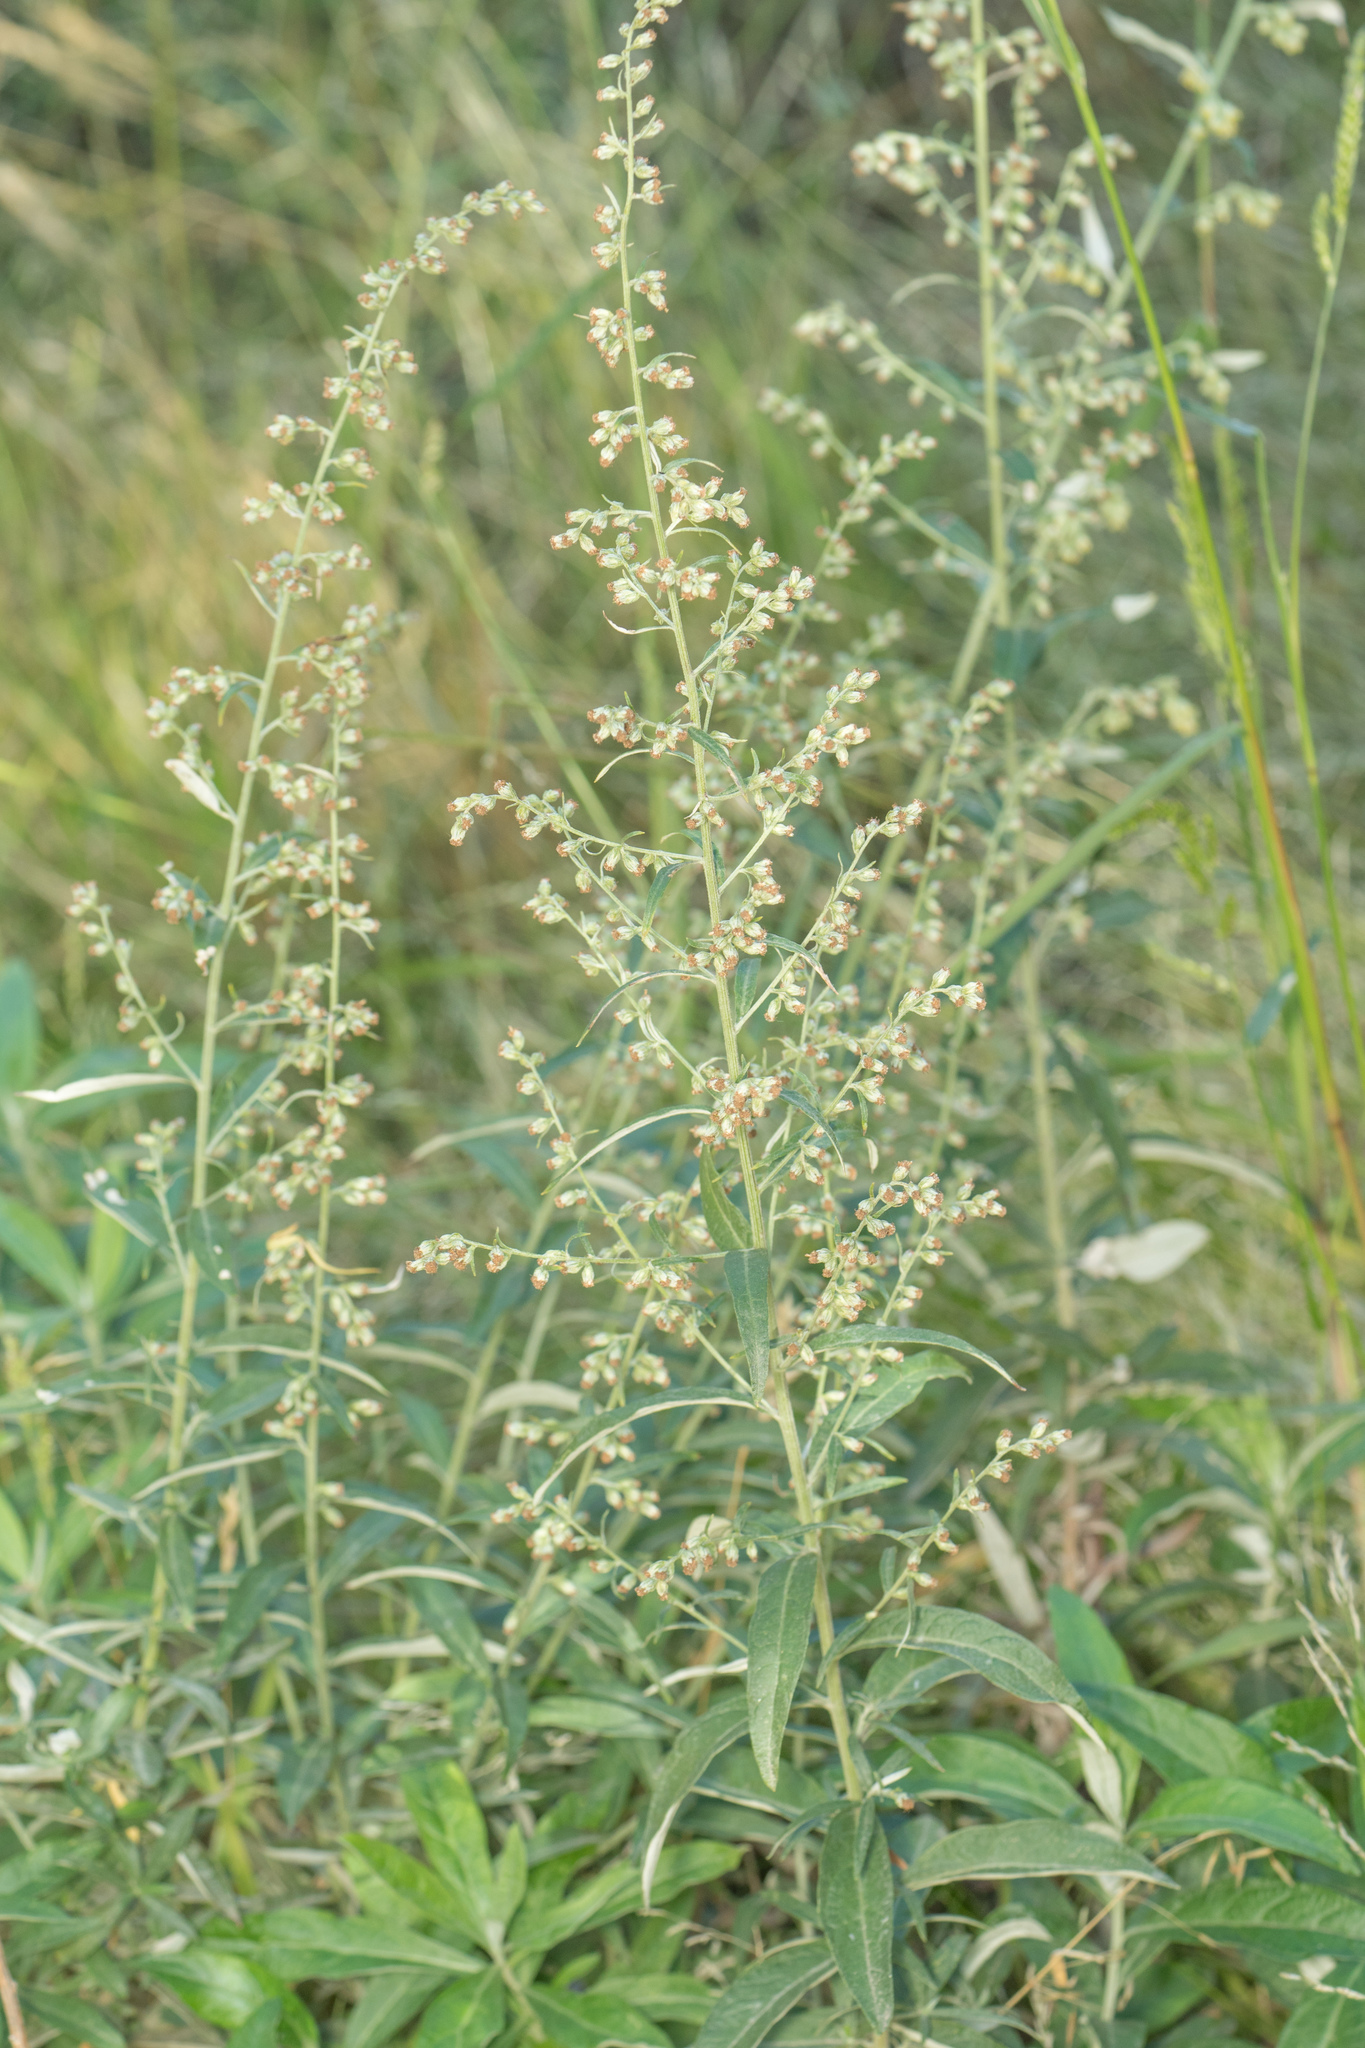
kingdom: Plantae
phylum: Tracheophyta
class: Magnoliopsida
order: Asterales
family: Asteraceae
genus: Artemisia
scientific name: Artemisia douglasiana
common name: Northwest mugwort
